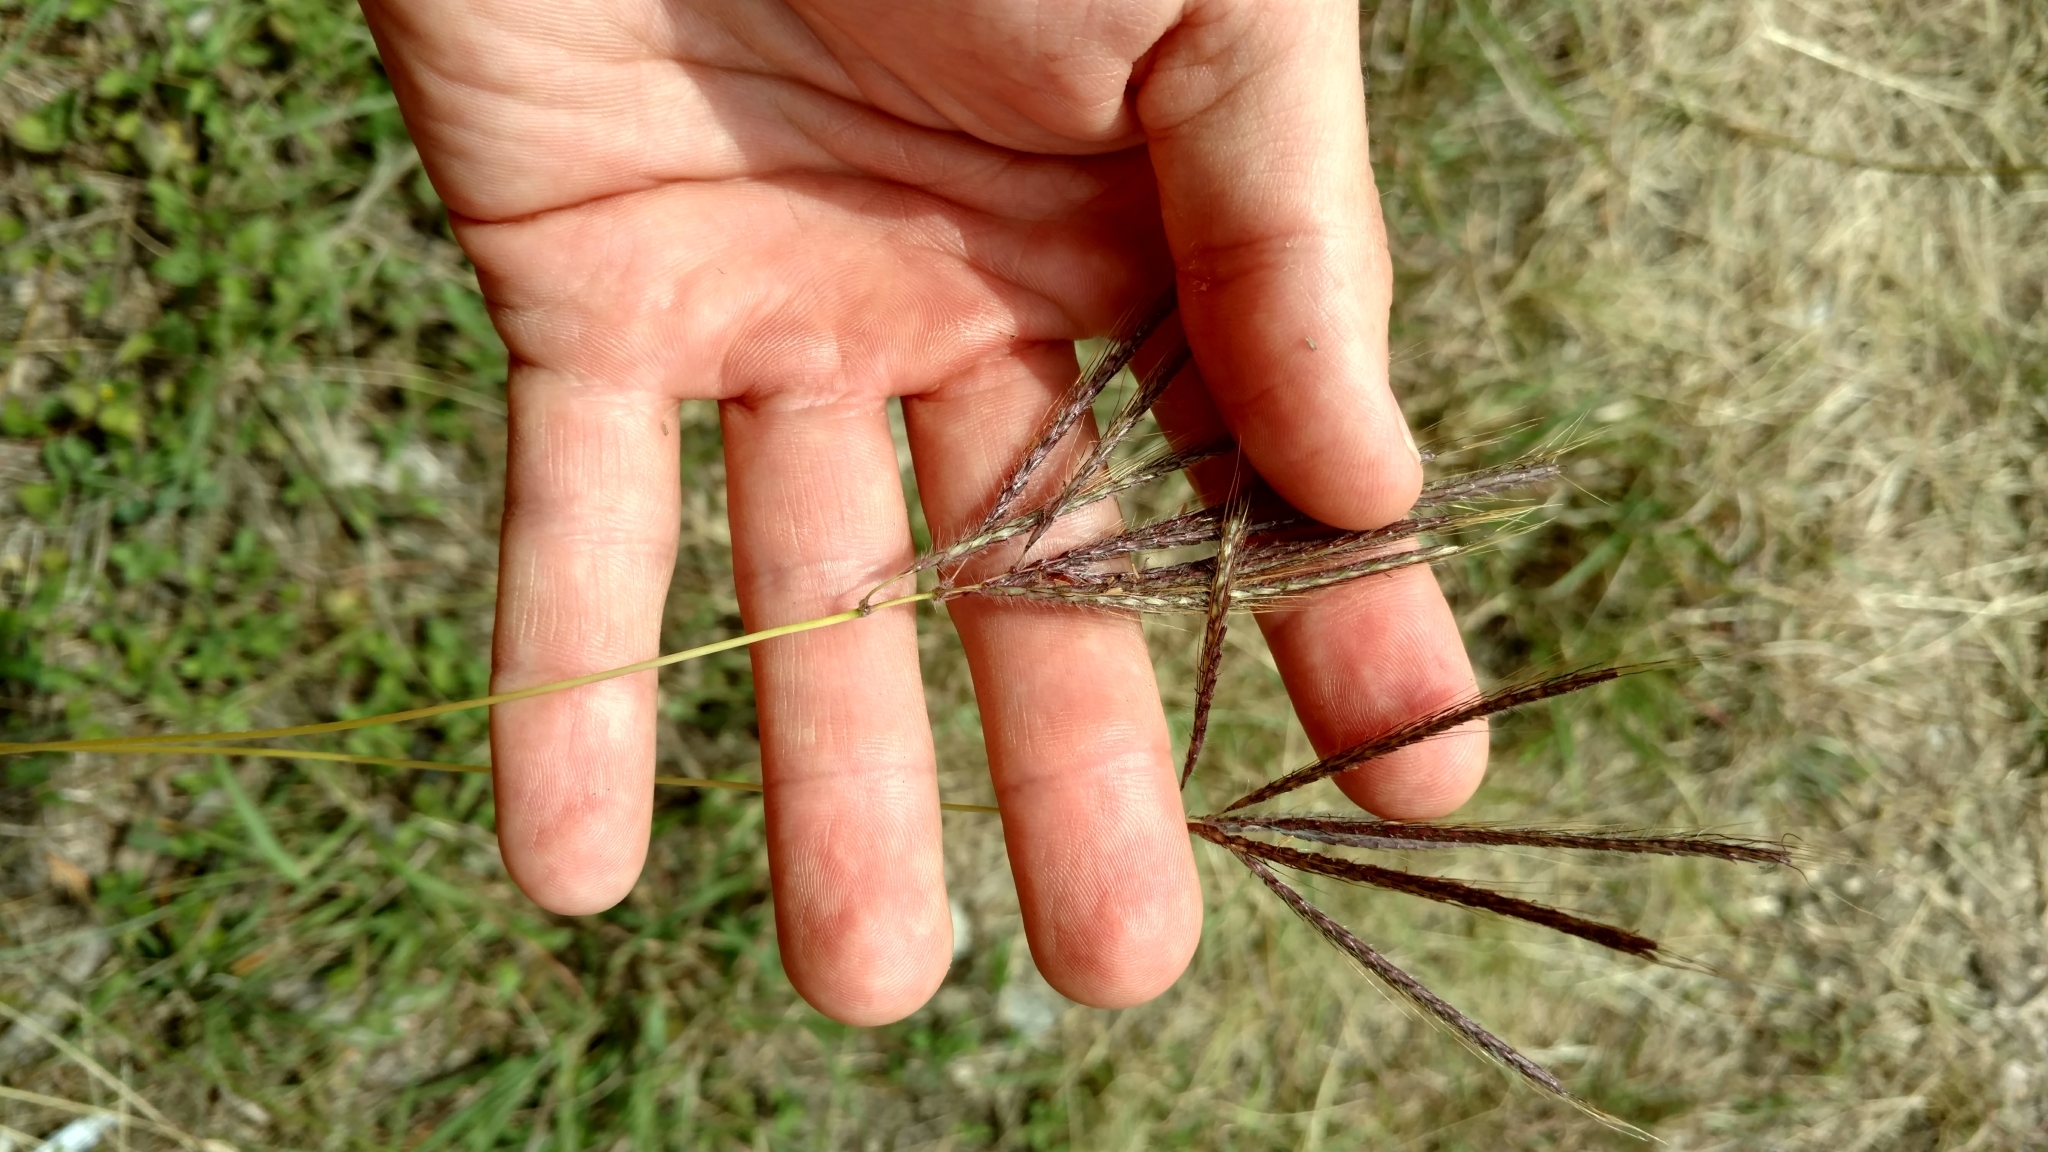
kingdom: Plantae
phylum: Tracheophyta
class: Liliopsida
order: Poales
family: Poaceae
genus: Dichanthium
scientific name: Dichanthium annulatum
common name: Kleberg's bluestem
